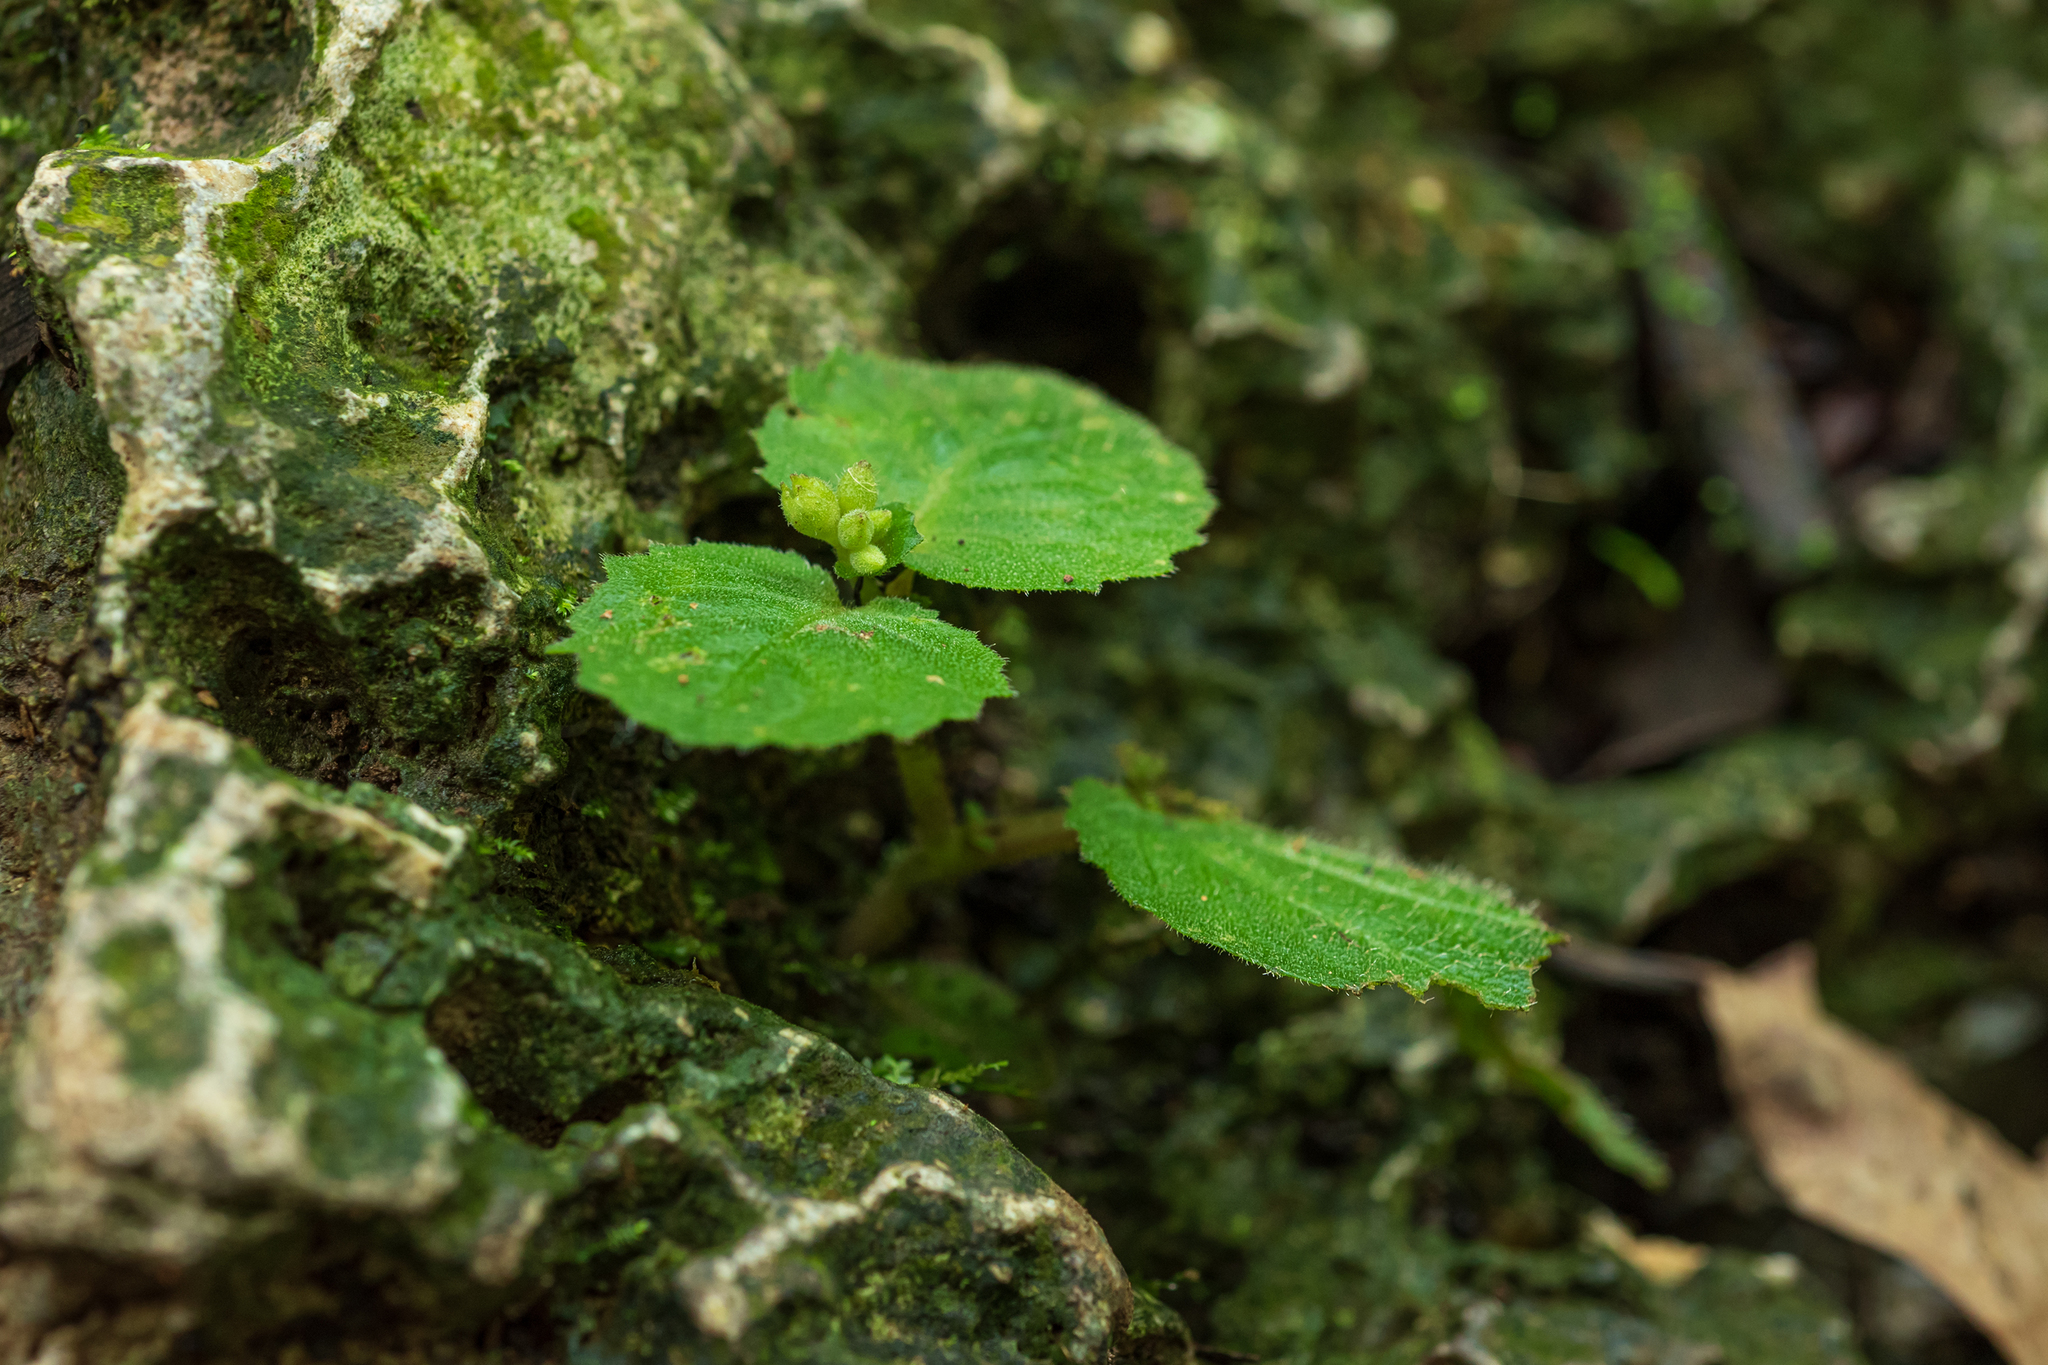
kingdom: Plantae
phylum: Tracheophyta
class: Magnoliopsida
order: Lamiales
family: Gesneriaceae
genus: Epithema
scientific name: Epithema ceylanicum
